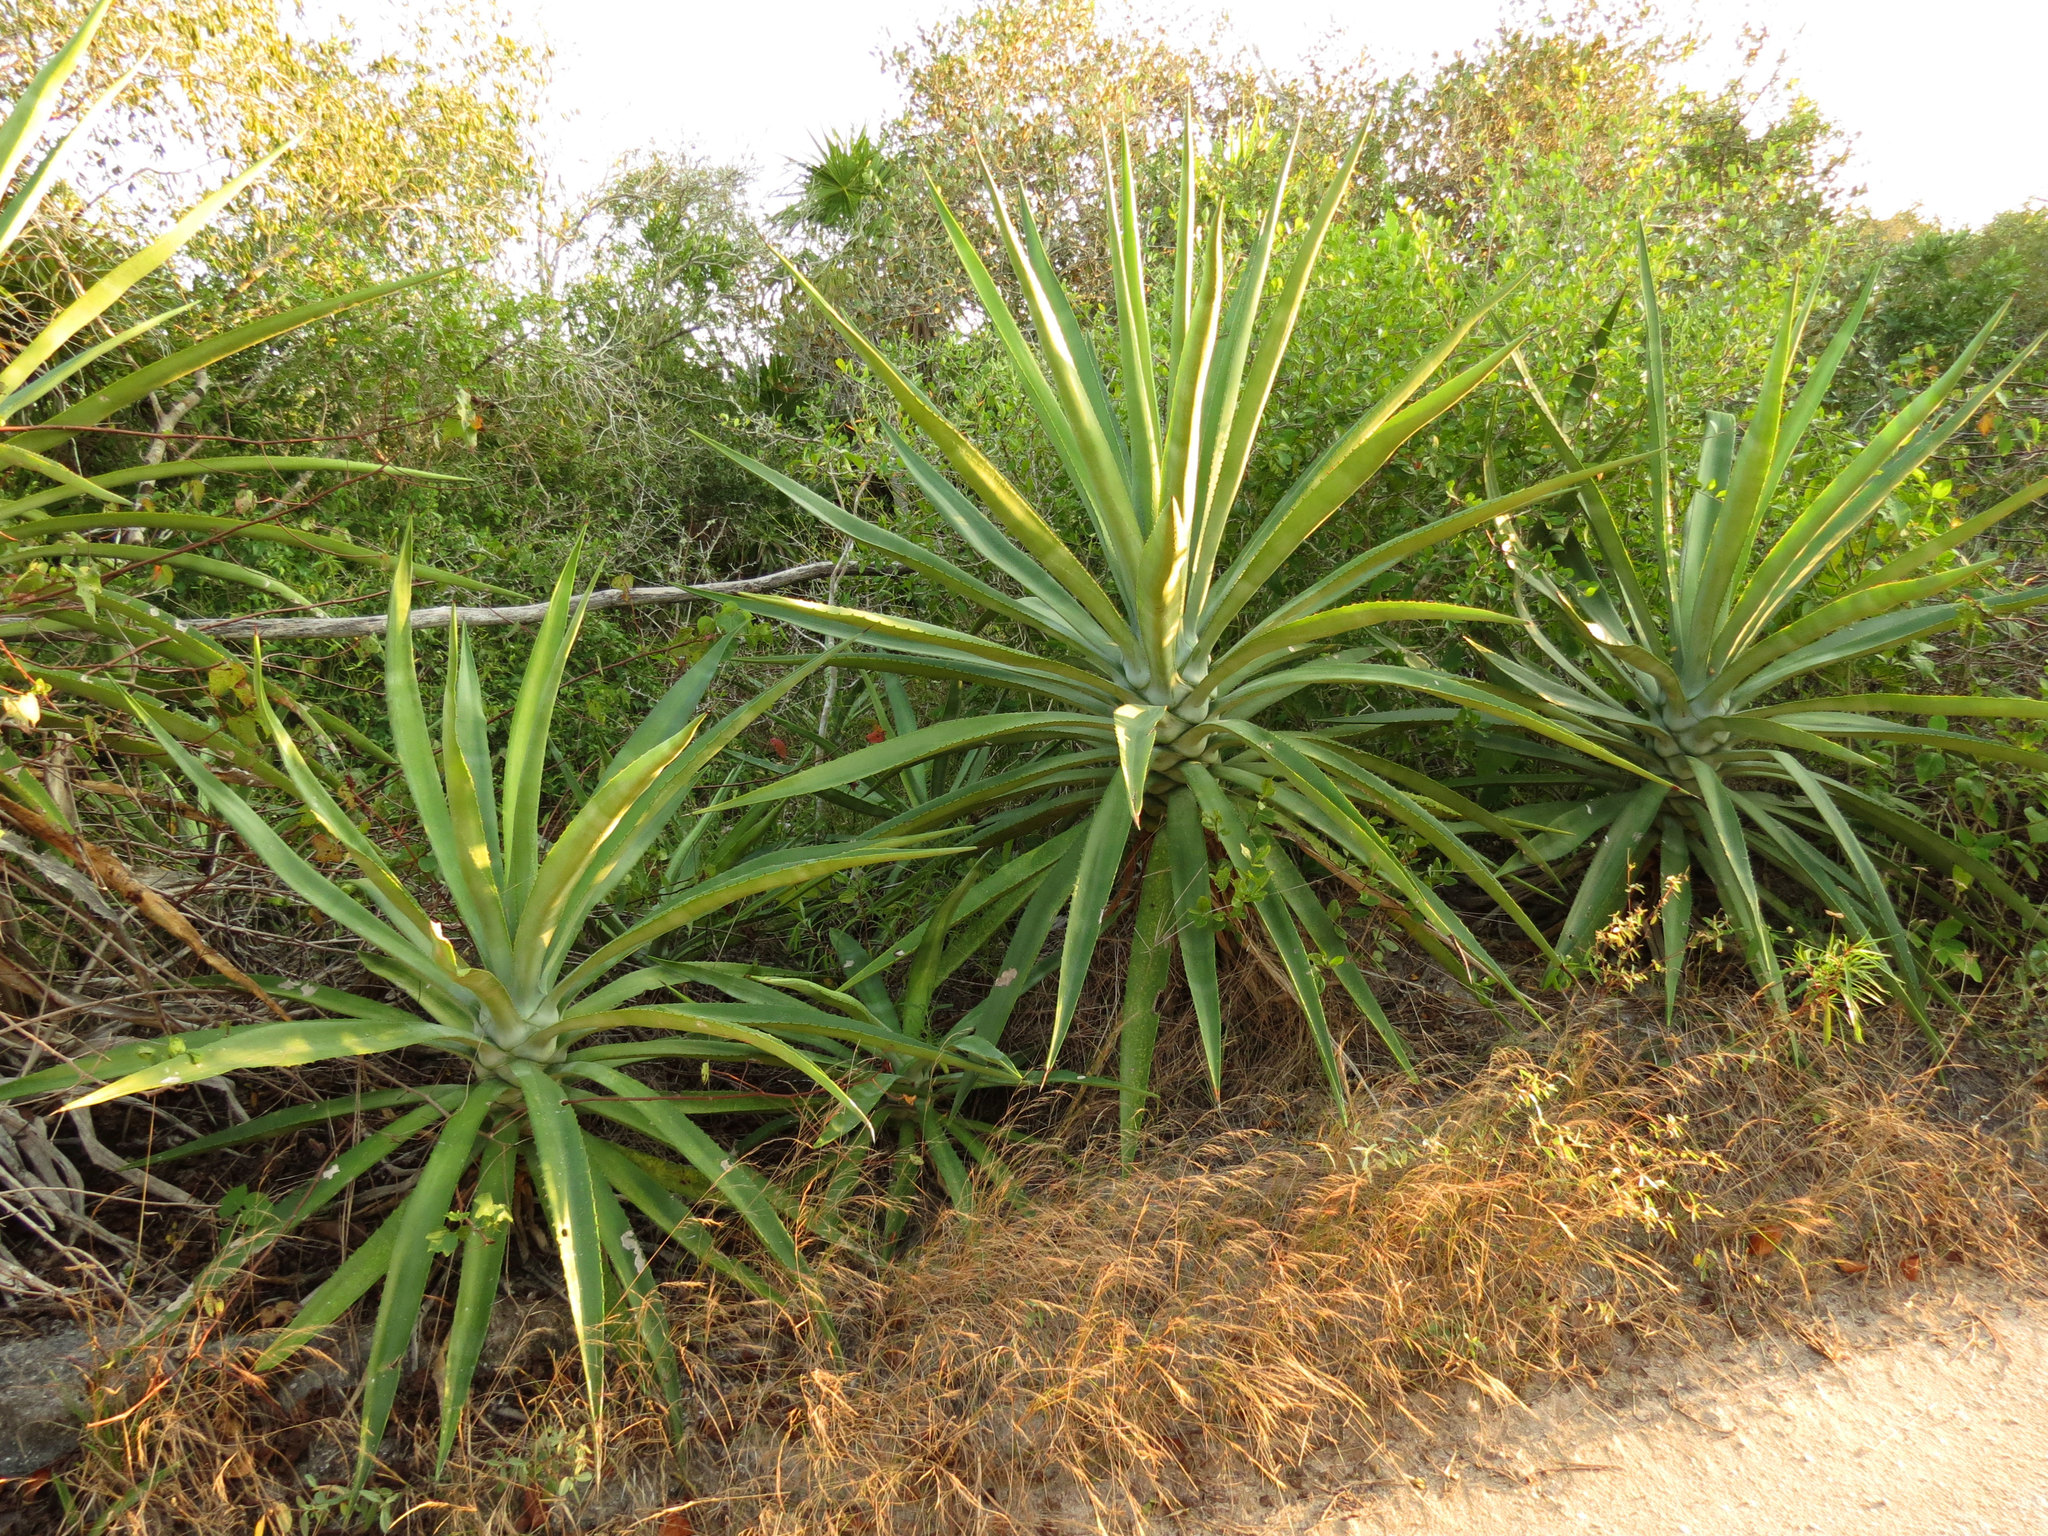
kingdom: Plantae
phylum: Tracheophyta
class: Liliopsida
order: Asparagales
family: Asparagaceae
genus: Agave
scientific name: Agave fourcroydes
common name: Henequen
